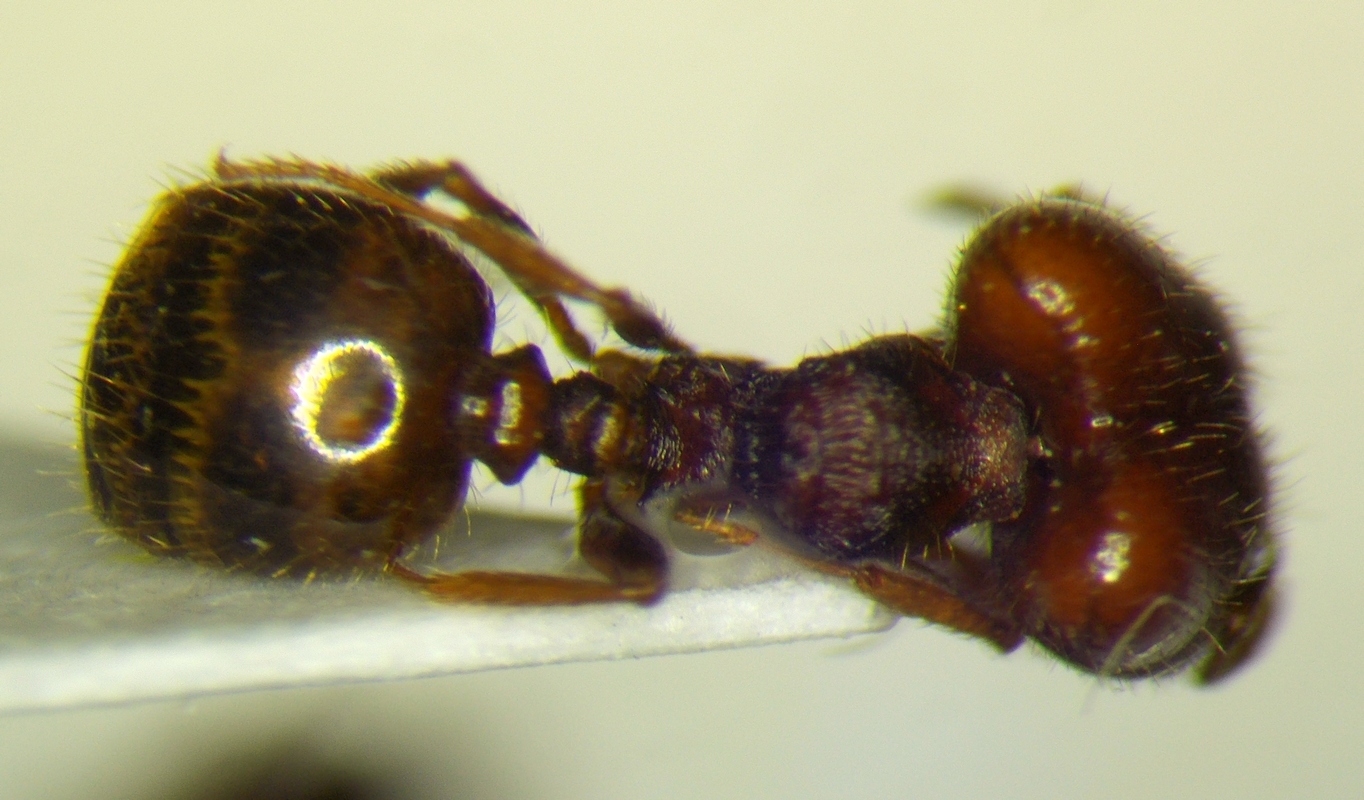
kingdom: Animalia
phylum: Arthropoda
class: Insecta
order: Hymenoptera
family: Formicidae
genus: Pheidole
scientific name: Pheidole xerophila
